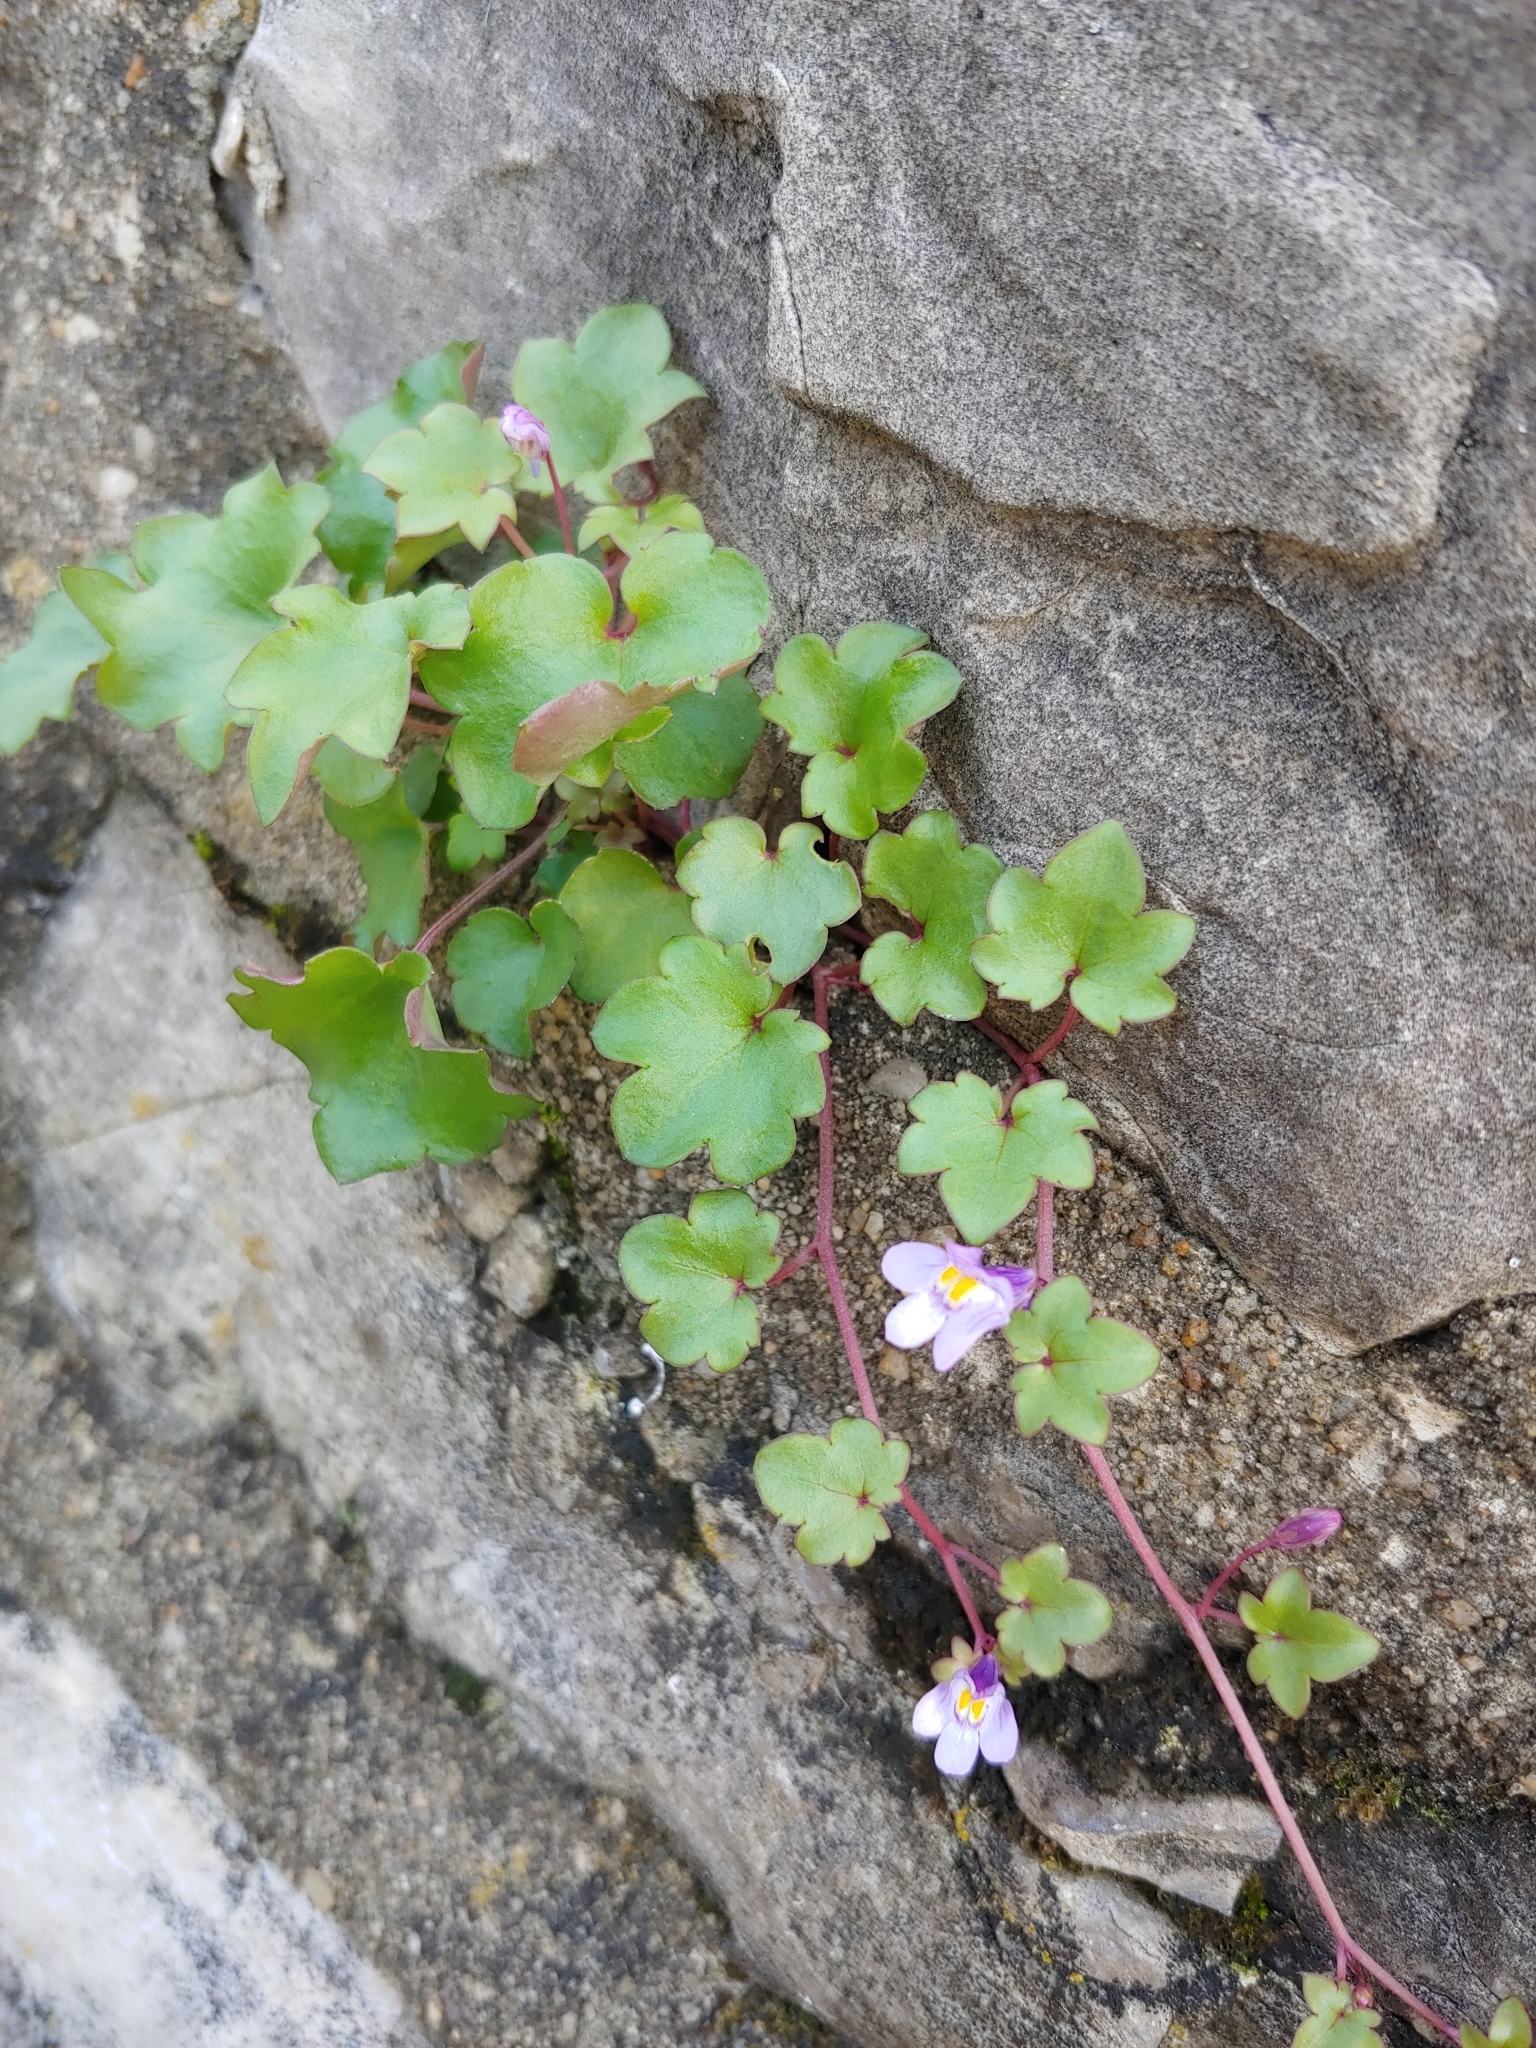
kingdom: Plantae
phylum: Tracheophyta
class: Magnoliopsida
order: Lamiales
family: Plantaginaceae
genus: Cymbalaria
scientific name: Cymbalaria muralis
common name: Ivy-leaved toadflax
